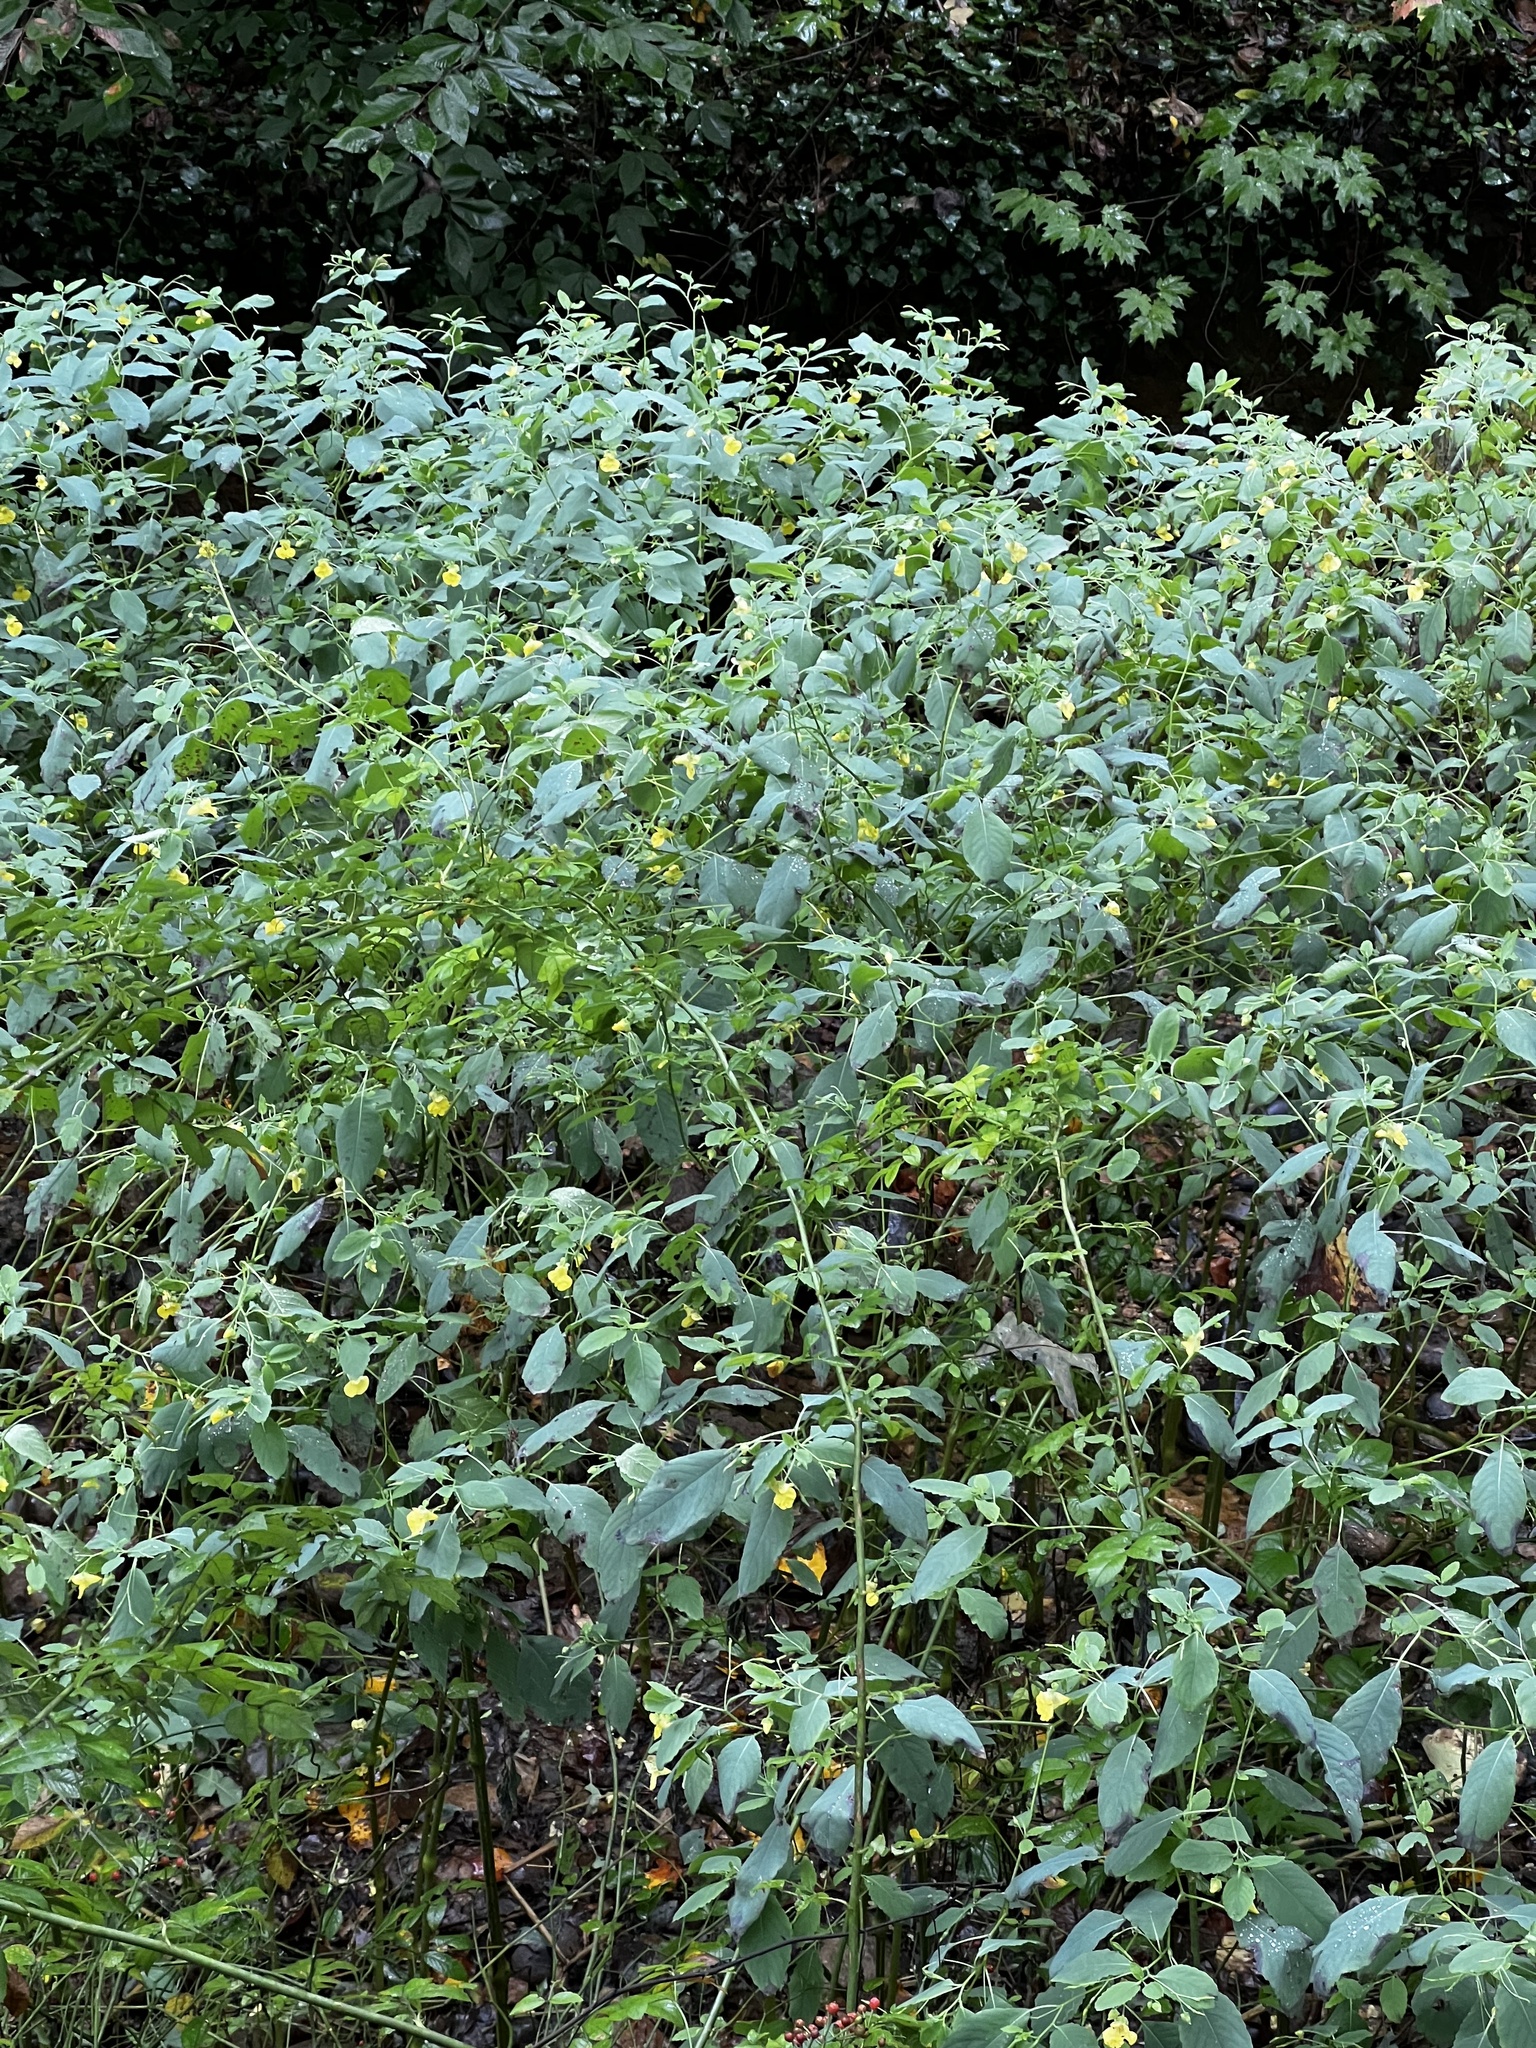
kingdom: Plantae
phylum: Tracheophyta
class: Magnoliopsida
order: Ericales
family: Balsaminaceae
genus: Impatiens
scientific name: Impatiens pallida
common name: Pale snapweed
